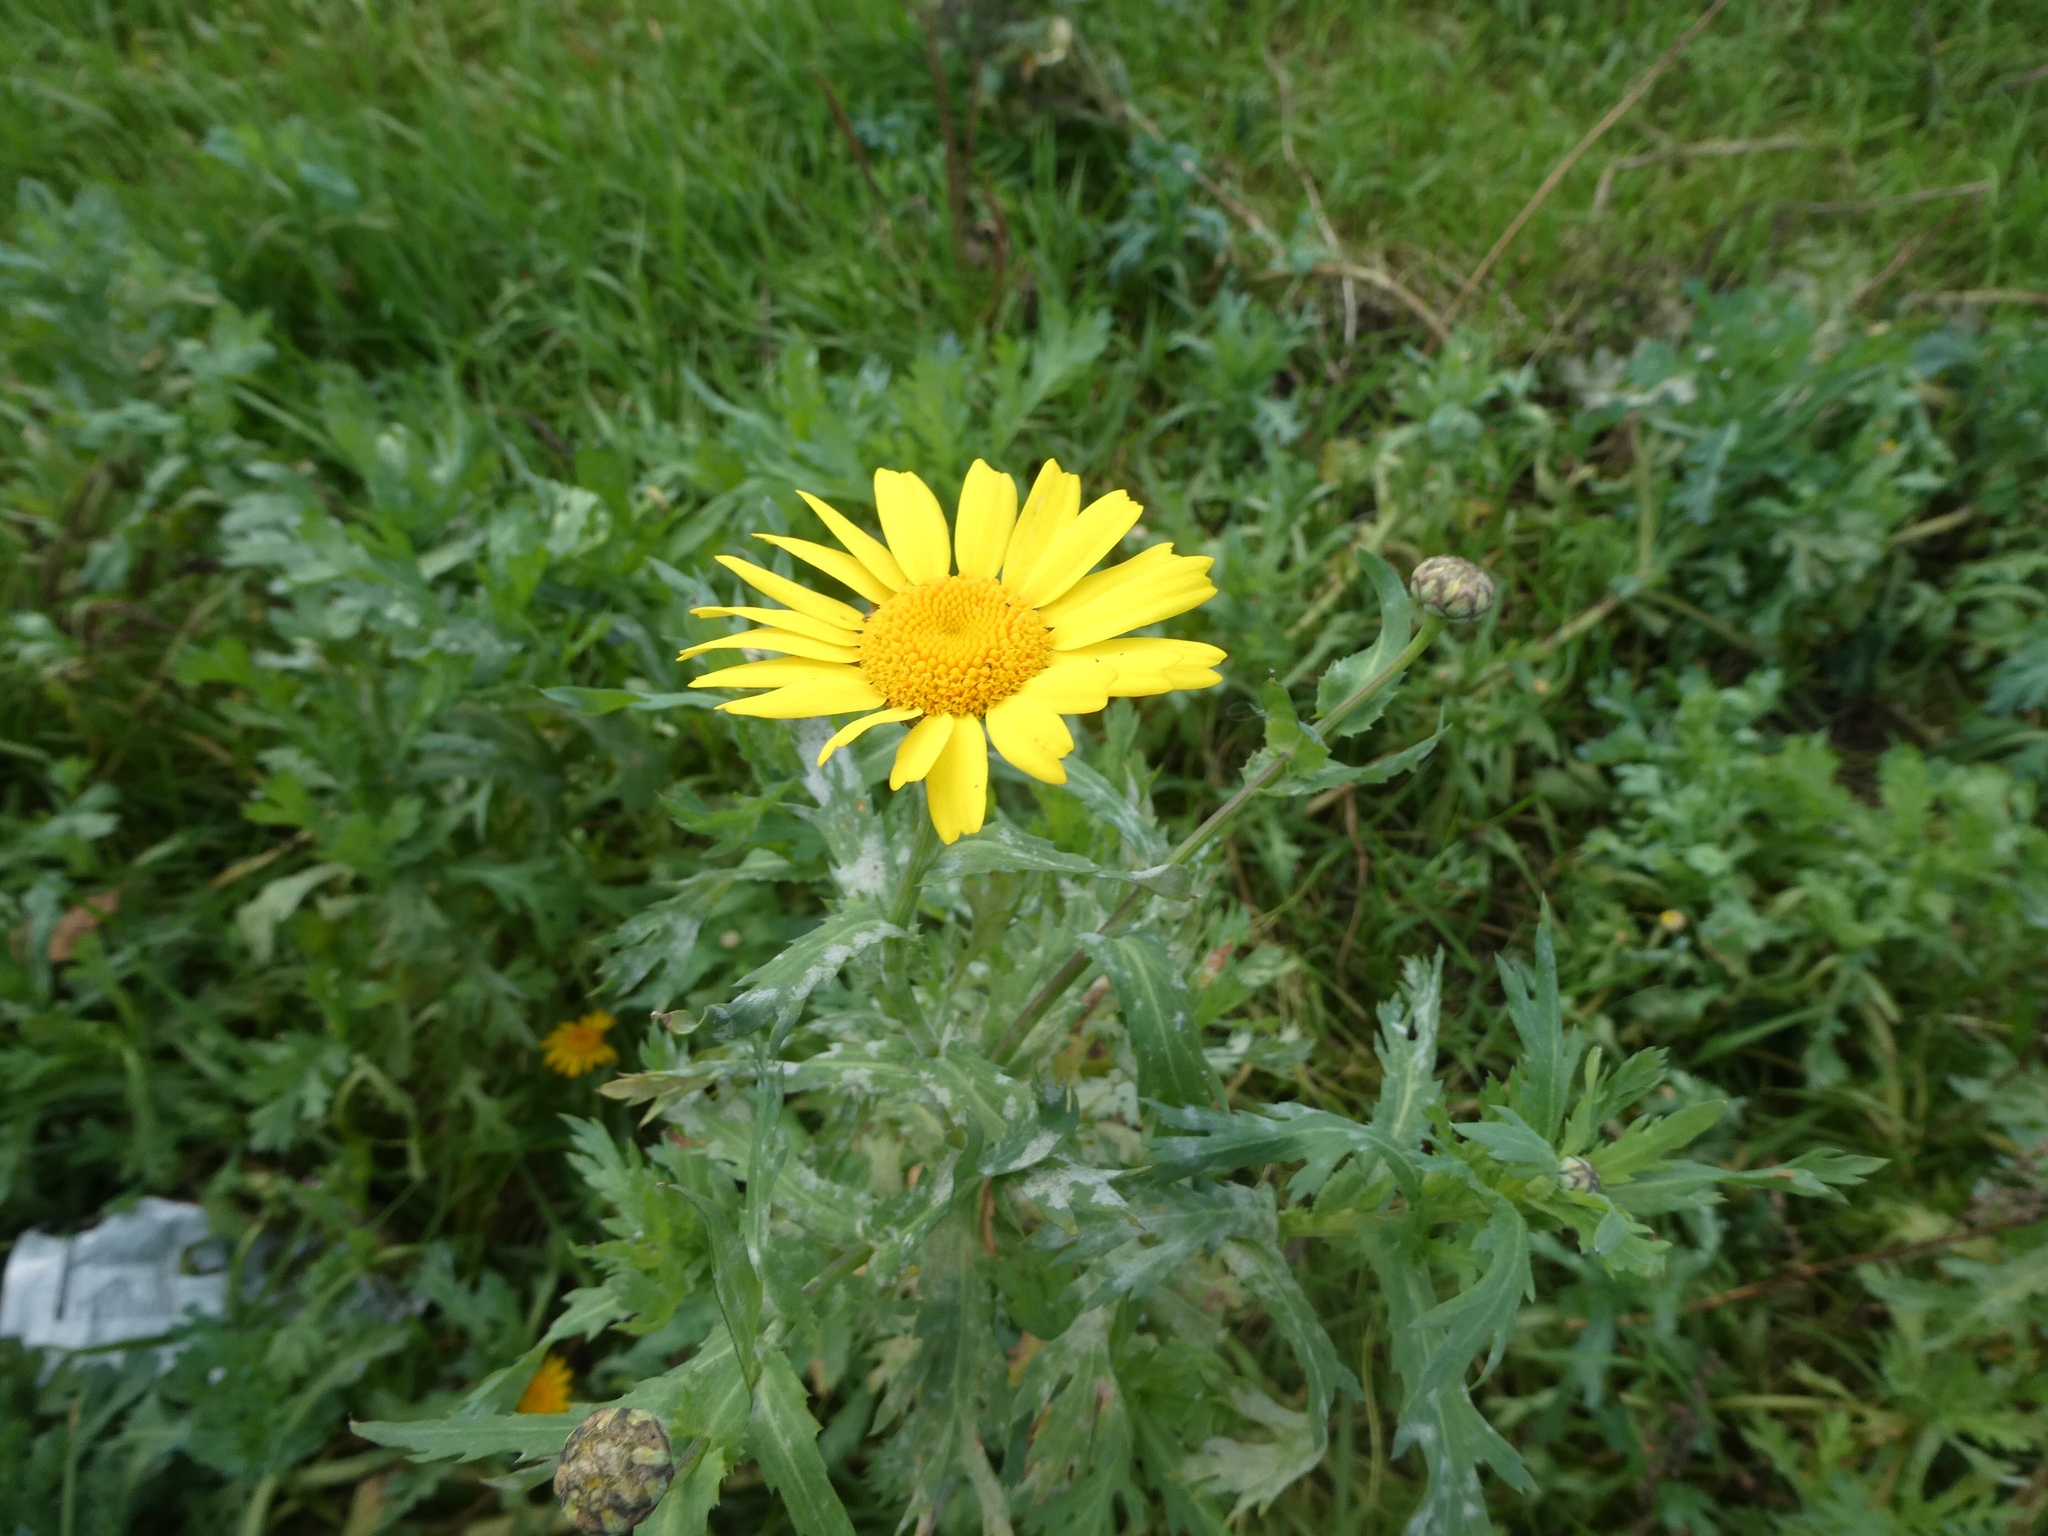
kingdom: Plantae
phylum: Tracheophyta
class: Magnoliopsida
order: Asterales
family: Asteraceae
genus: Glebionis
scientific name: Glebionis segetum
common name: Corndaisy
